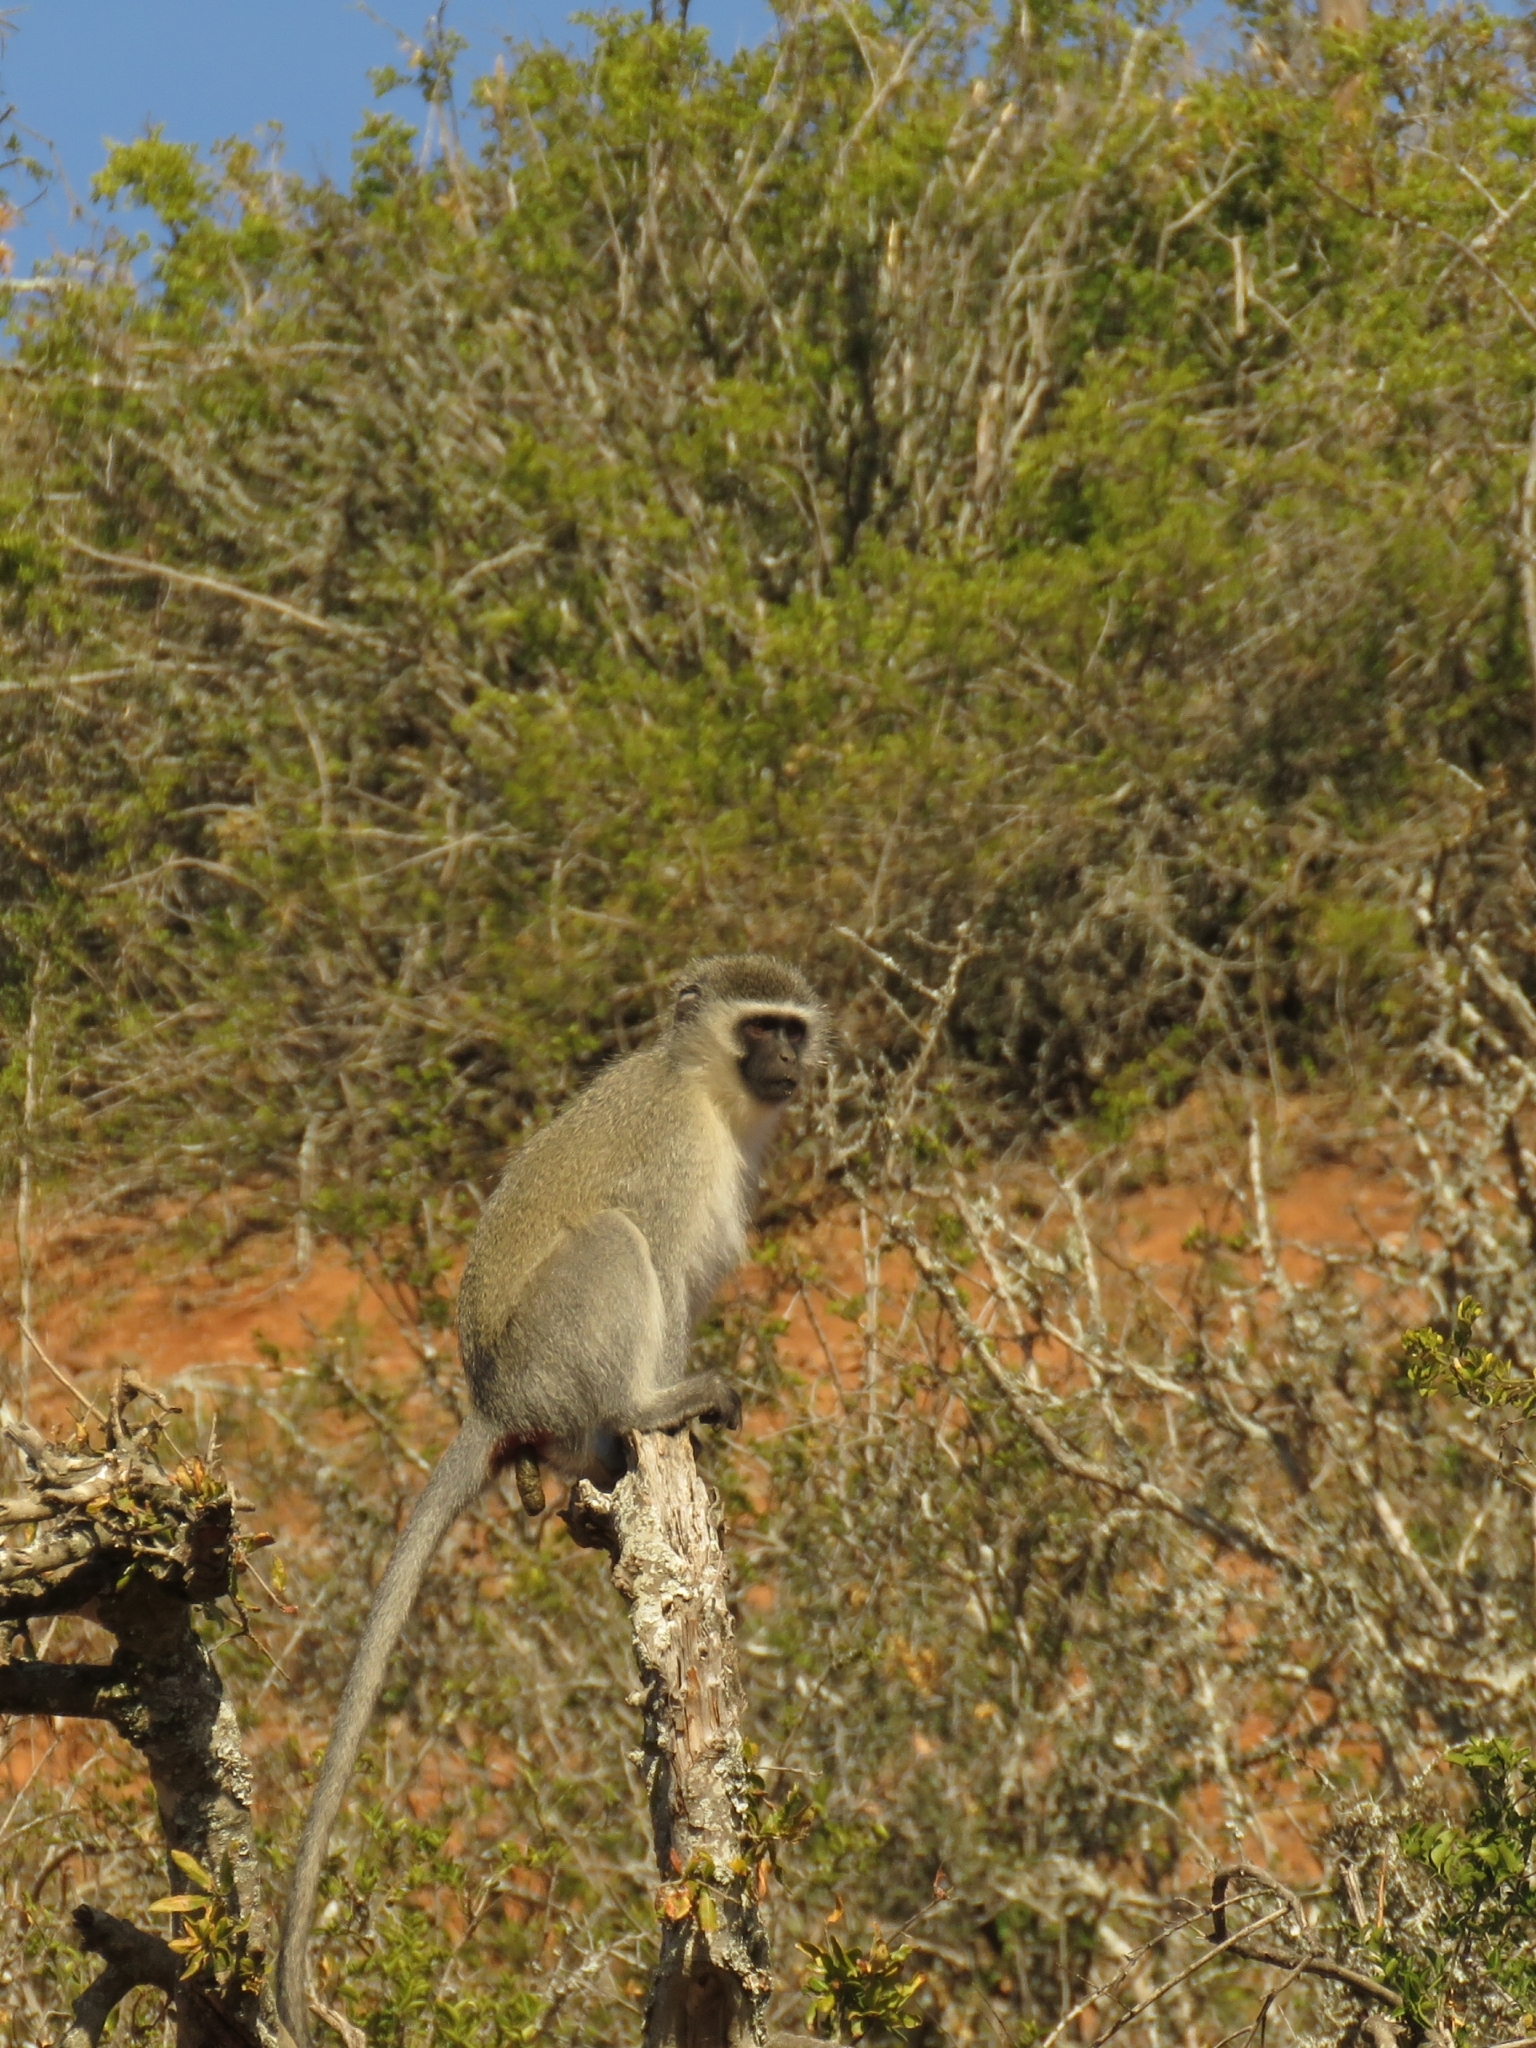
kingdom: Animalia
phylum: Chordata
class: Mammalia
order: Primates
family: Cercopithecidae
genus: Chlorocebus
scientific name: Chlorocebus pygerythrus
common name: Vervet monkey
